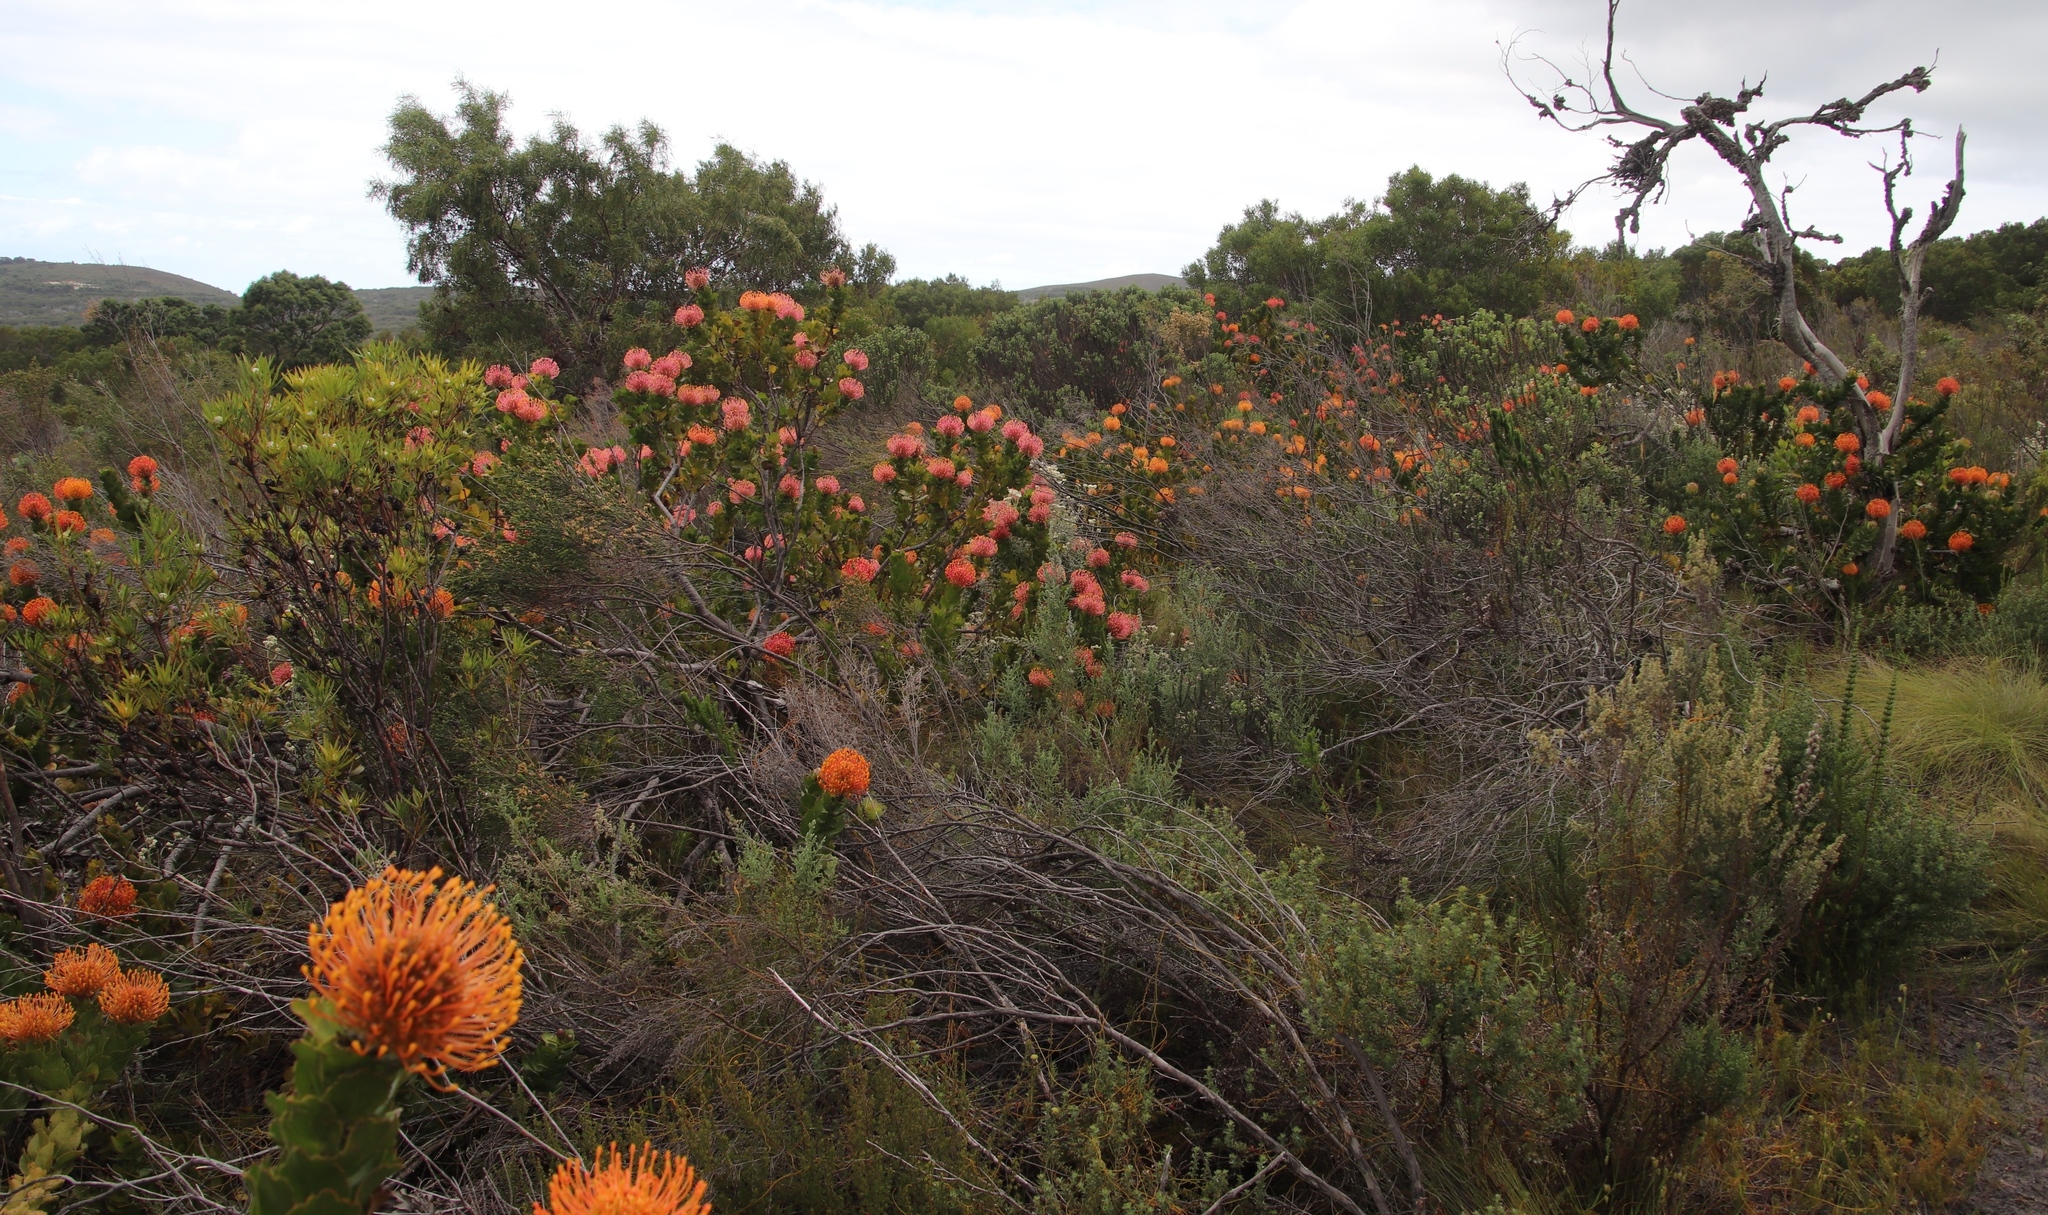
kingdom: Plantae
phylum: Tracheophyta
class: Magnoliopsida
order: Proteales
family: Proteaceae
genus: Leucospermum
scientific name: Leucospermum patersonii
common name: False tree pincushion
